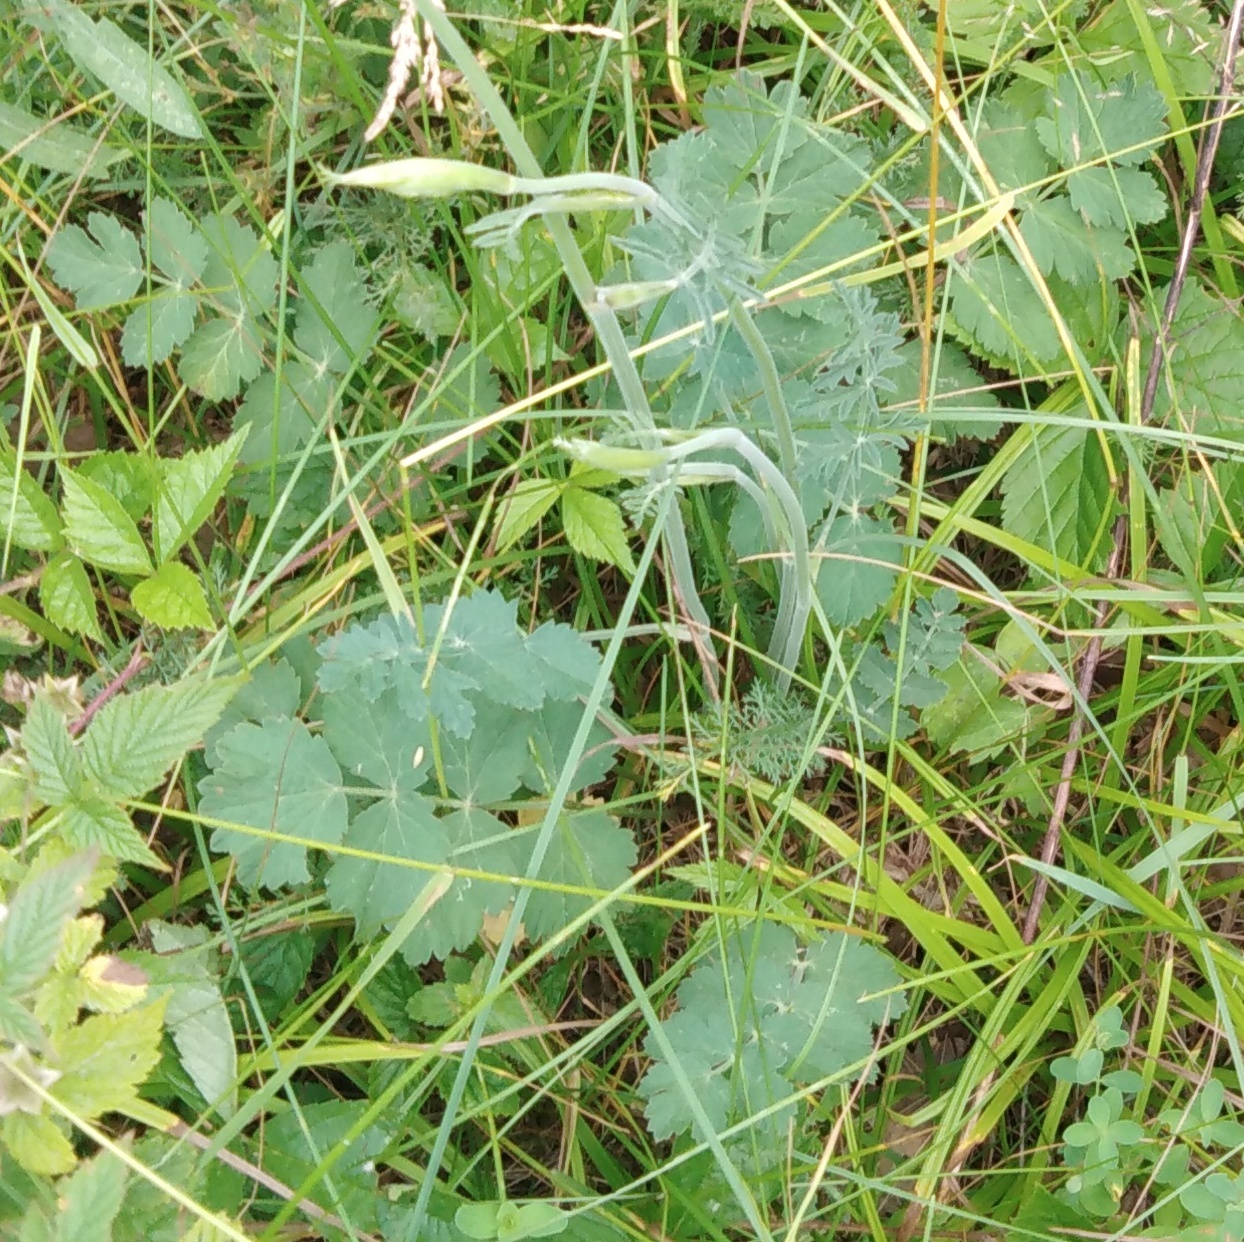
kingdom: Plantae
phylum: Tracheophyta
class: Magnoliopsida
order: Apiales
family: Apiaceae
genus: Pimpinella
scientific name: Pimpinella saxifraga
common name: Burnet-saxifrage
